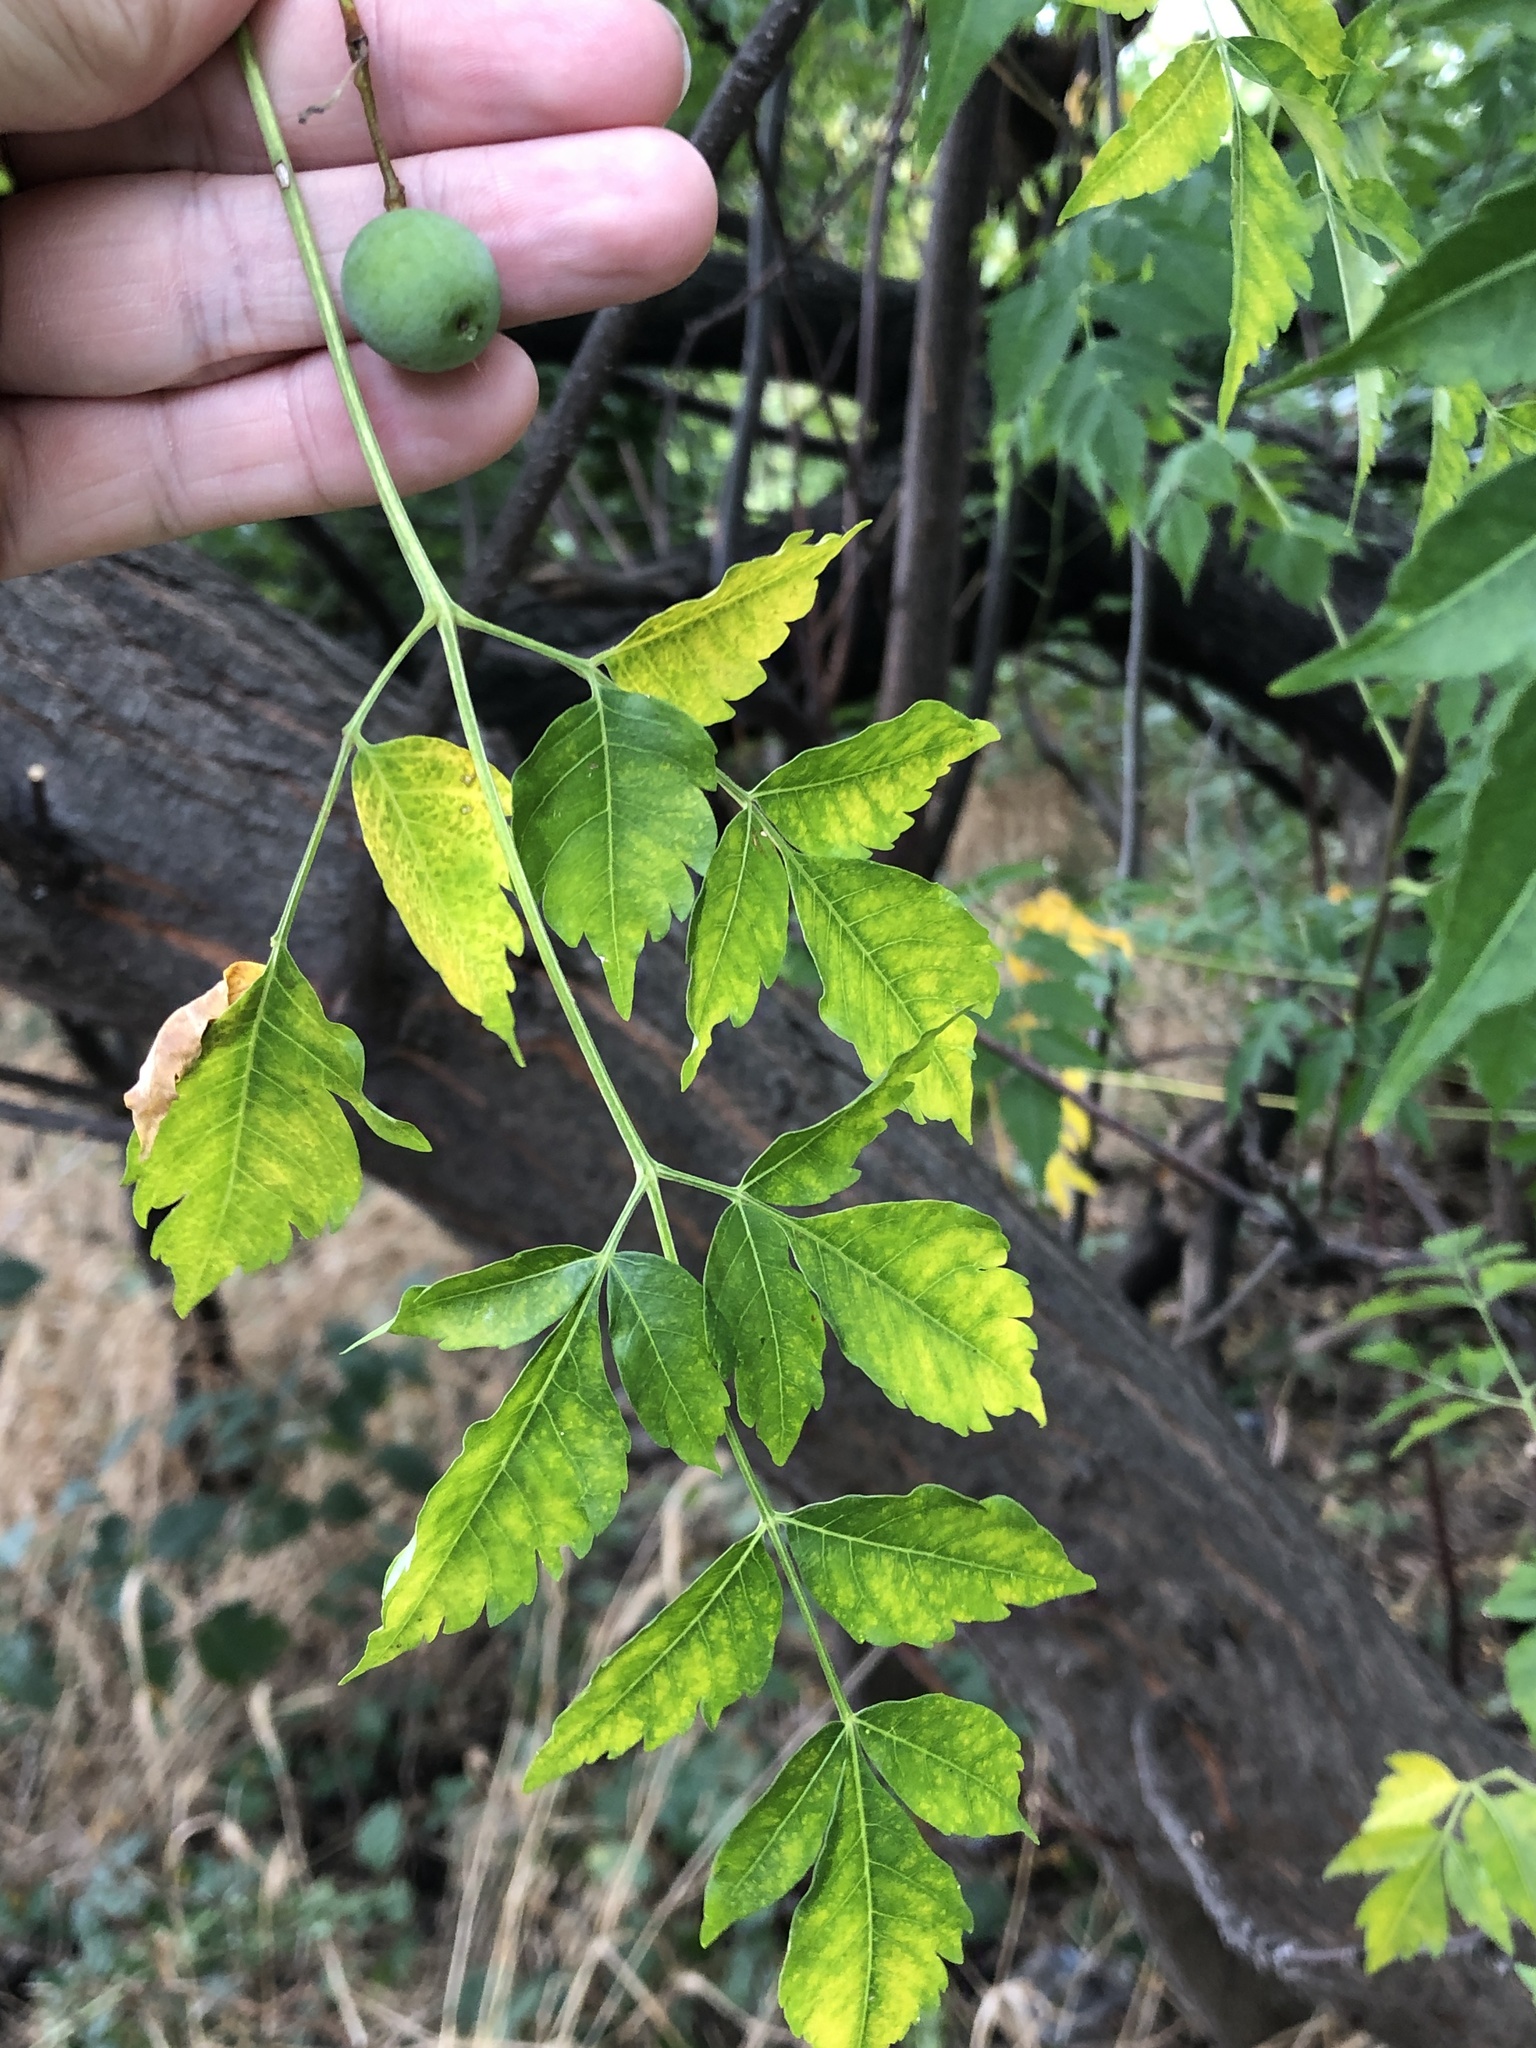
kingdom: Plantae
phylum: Tracheophyta
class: Magnoliopsida
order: Sapindales
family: Meliaceae
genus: Melia
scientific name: Melia azedarach
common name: Chinaberrytree
